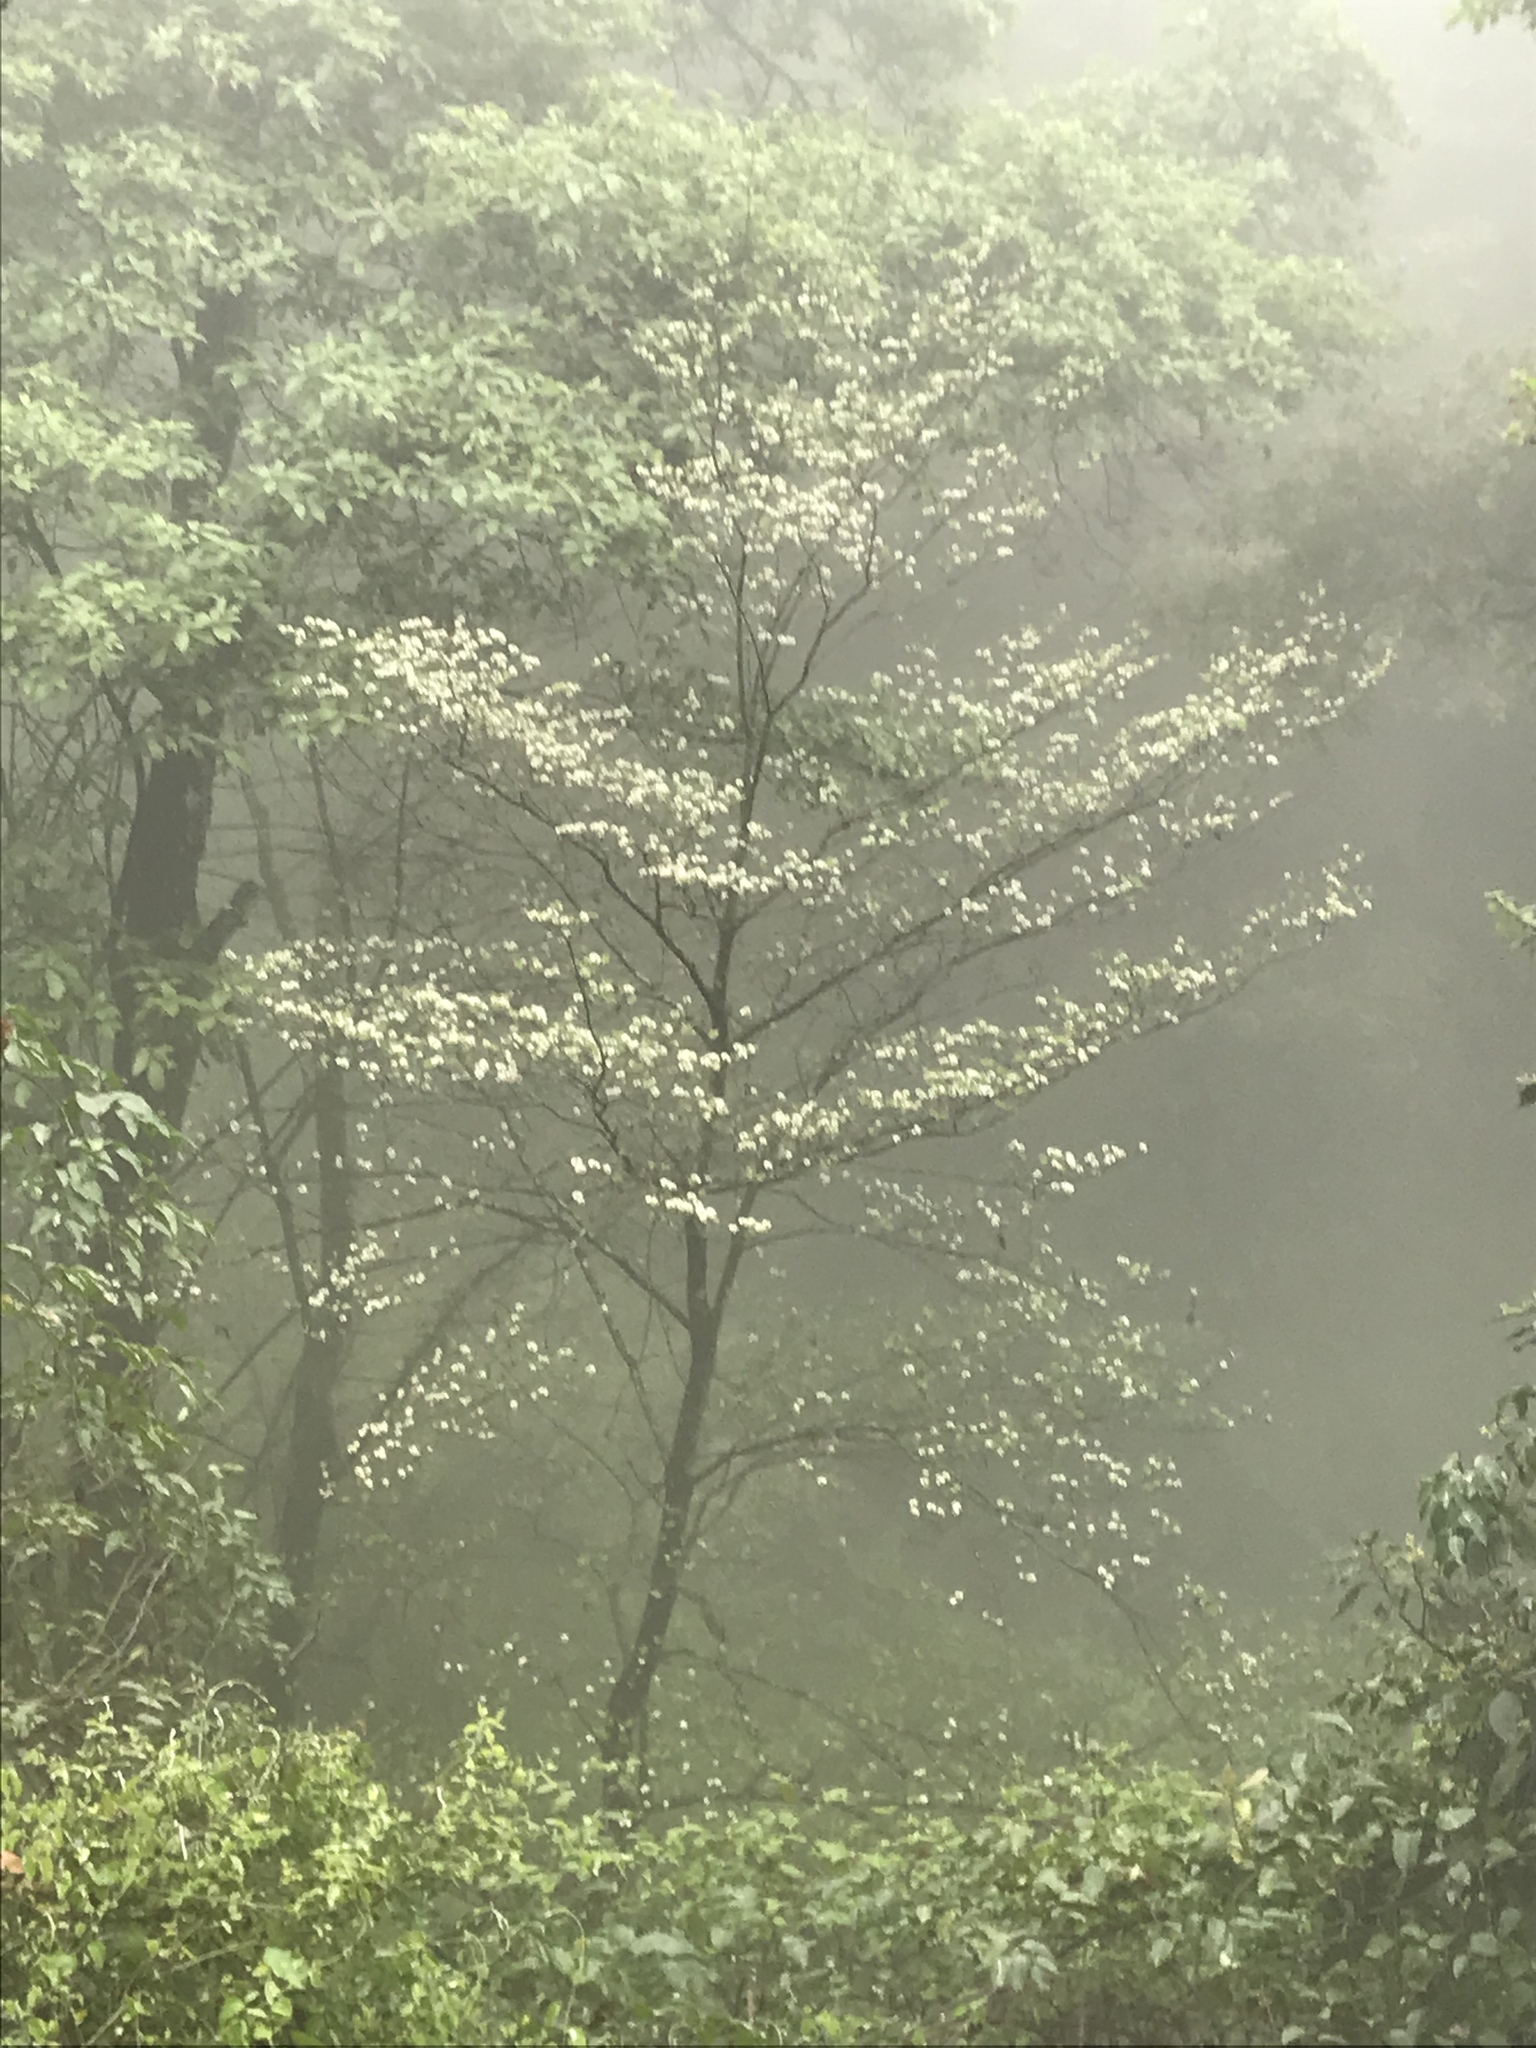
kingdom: Plantae
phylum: Tracheophyta
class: Magnoliopsida
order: Cornales
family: Cornaceae
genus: Cornus
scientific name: Cornus florida
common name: Flowering dogwood
